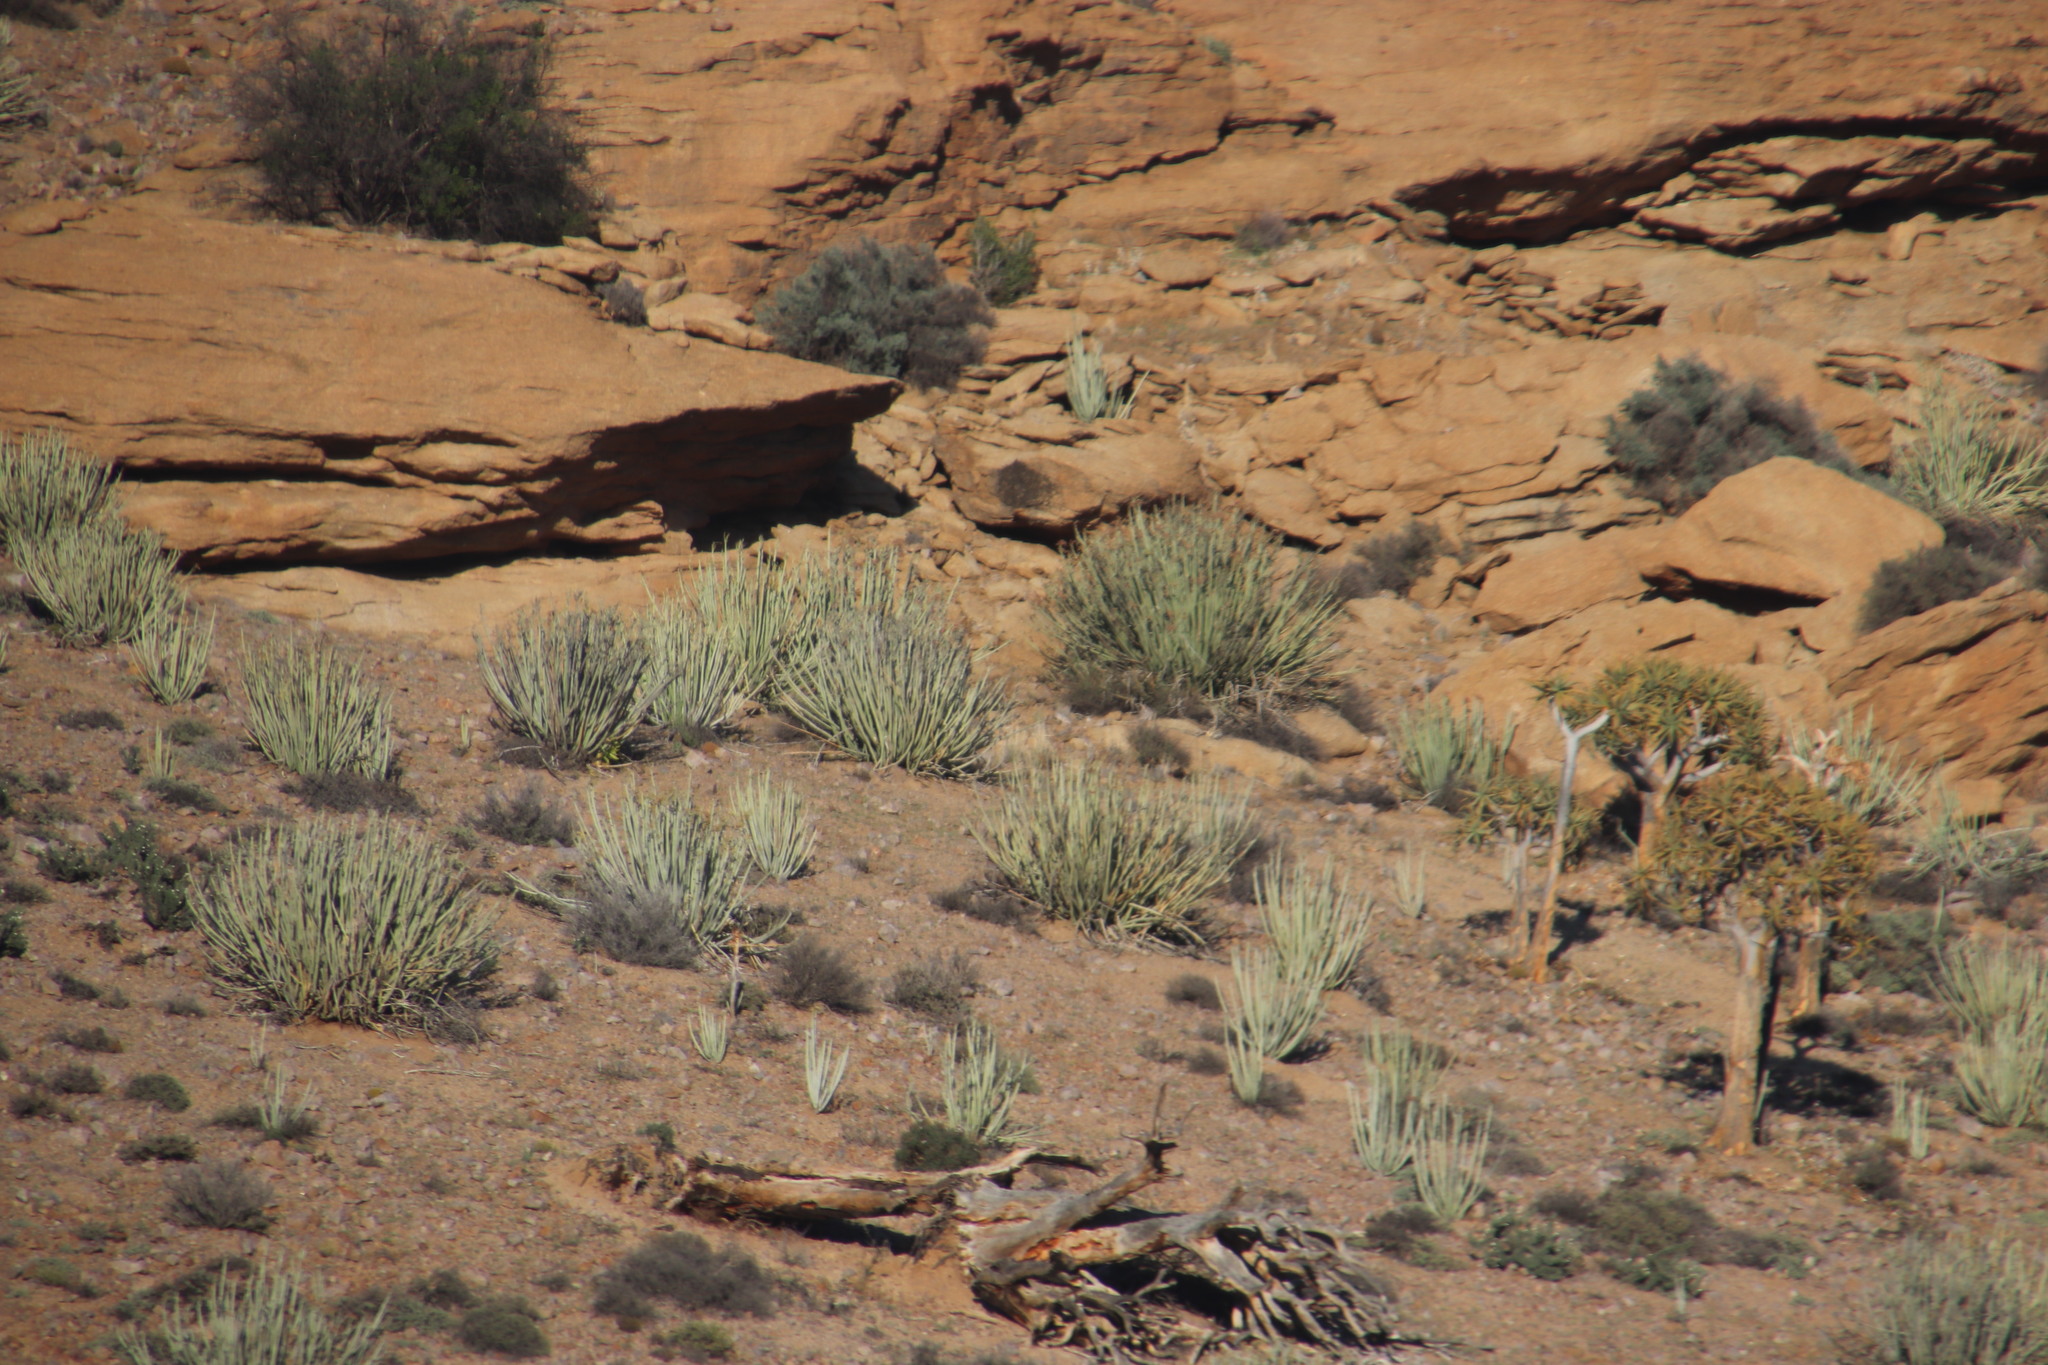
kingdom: Plantae
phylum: Tracheophyta
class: Magnoliopsida
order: Malpighiales
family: Euphorbiaceae
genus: Euphorbia
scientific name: Euphorbia dregeana
